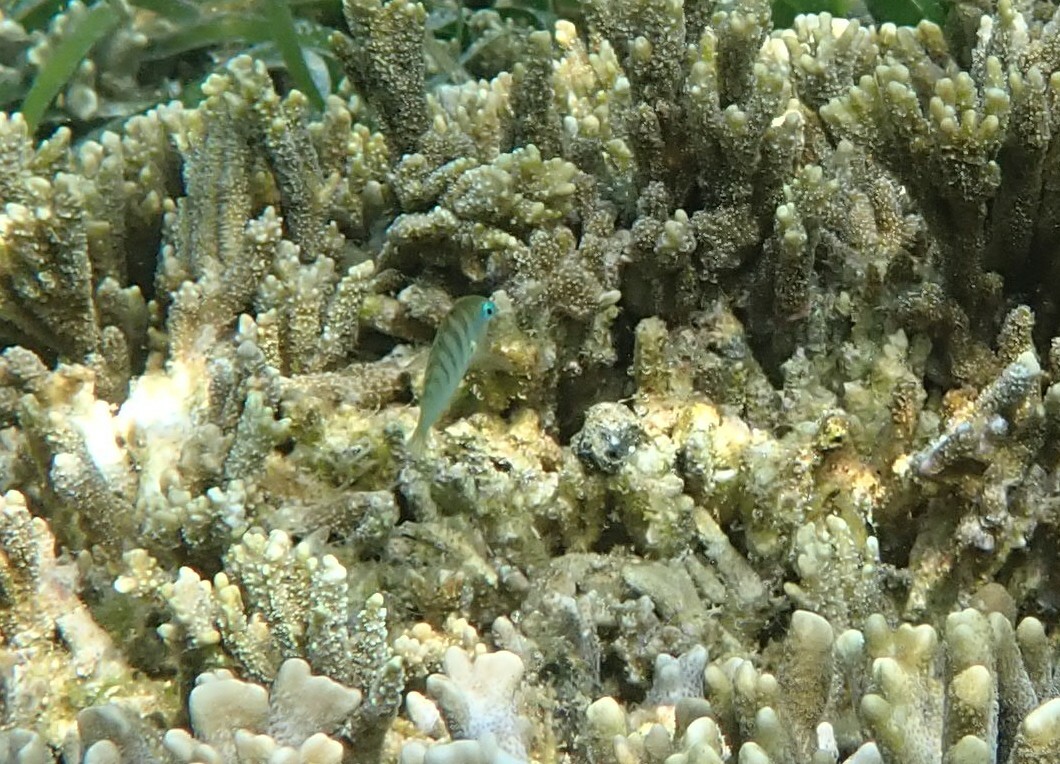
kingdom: Animalia
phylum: Chordata
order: Perciformes
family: Labridae
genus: Thalassoma
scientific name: Thalassoma hardwicke
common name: Sixbar wrasse
